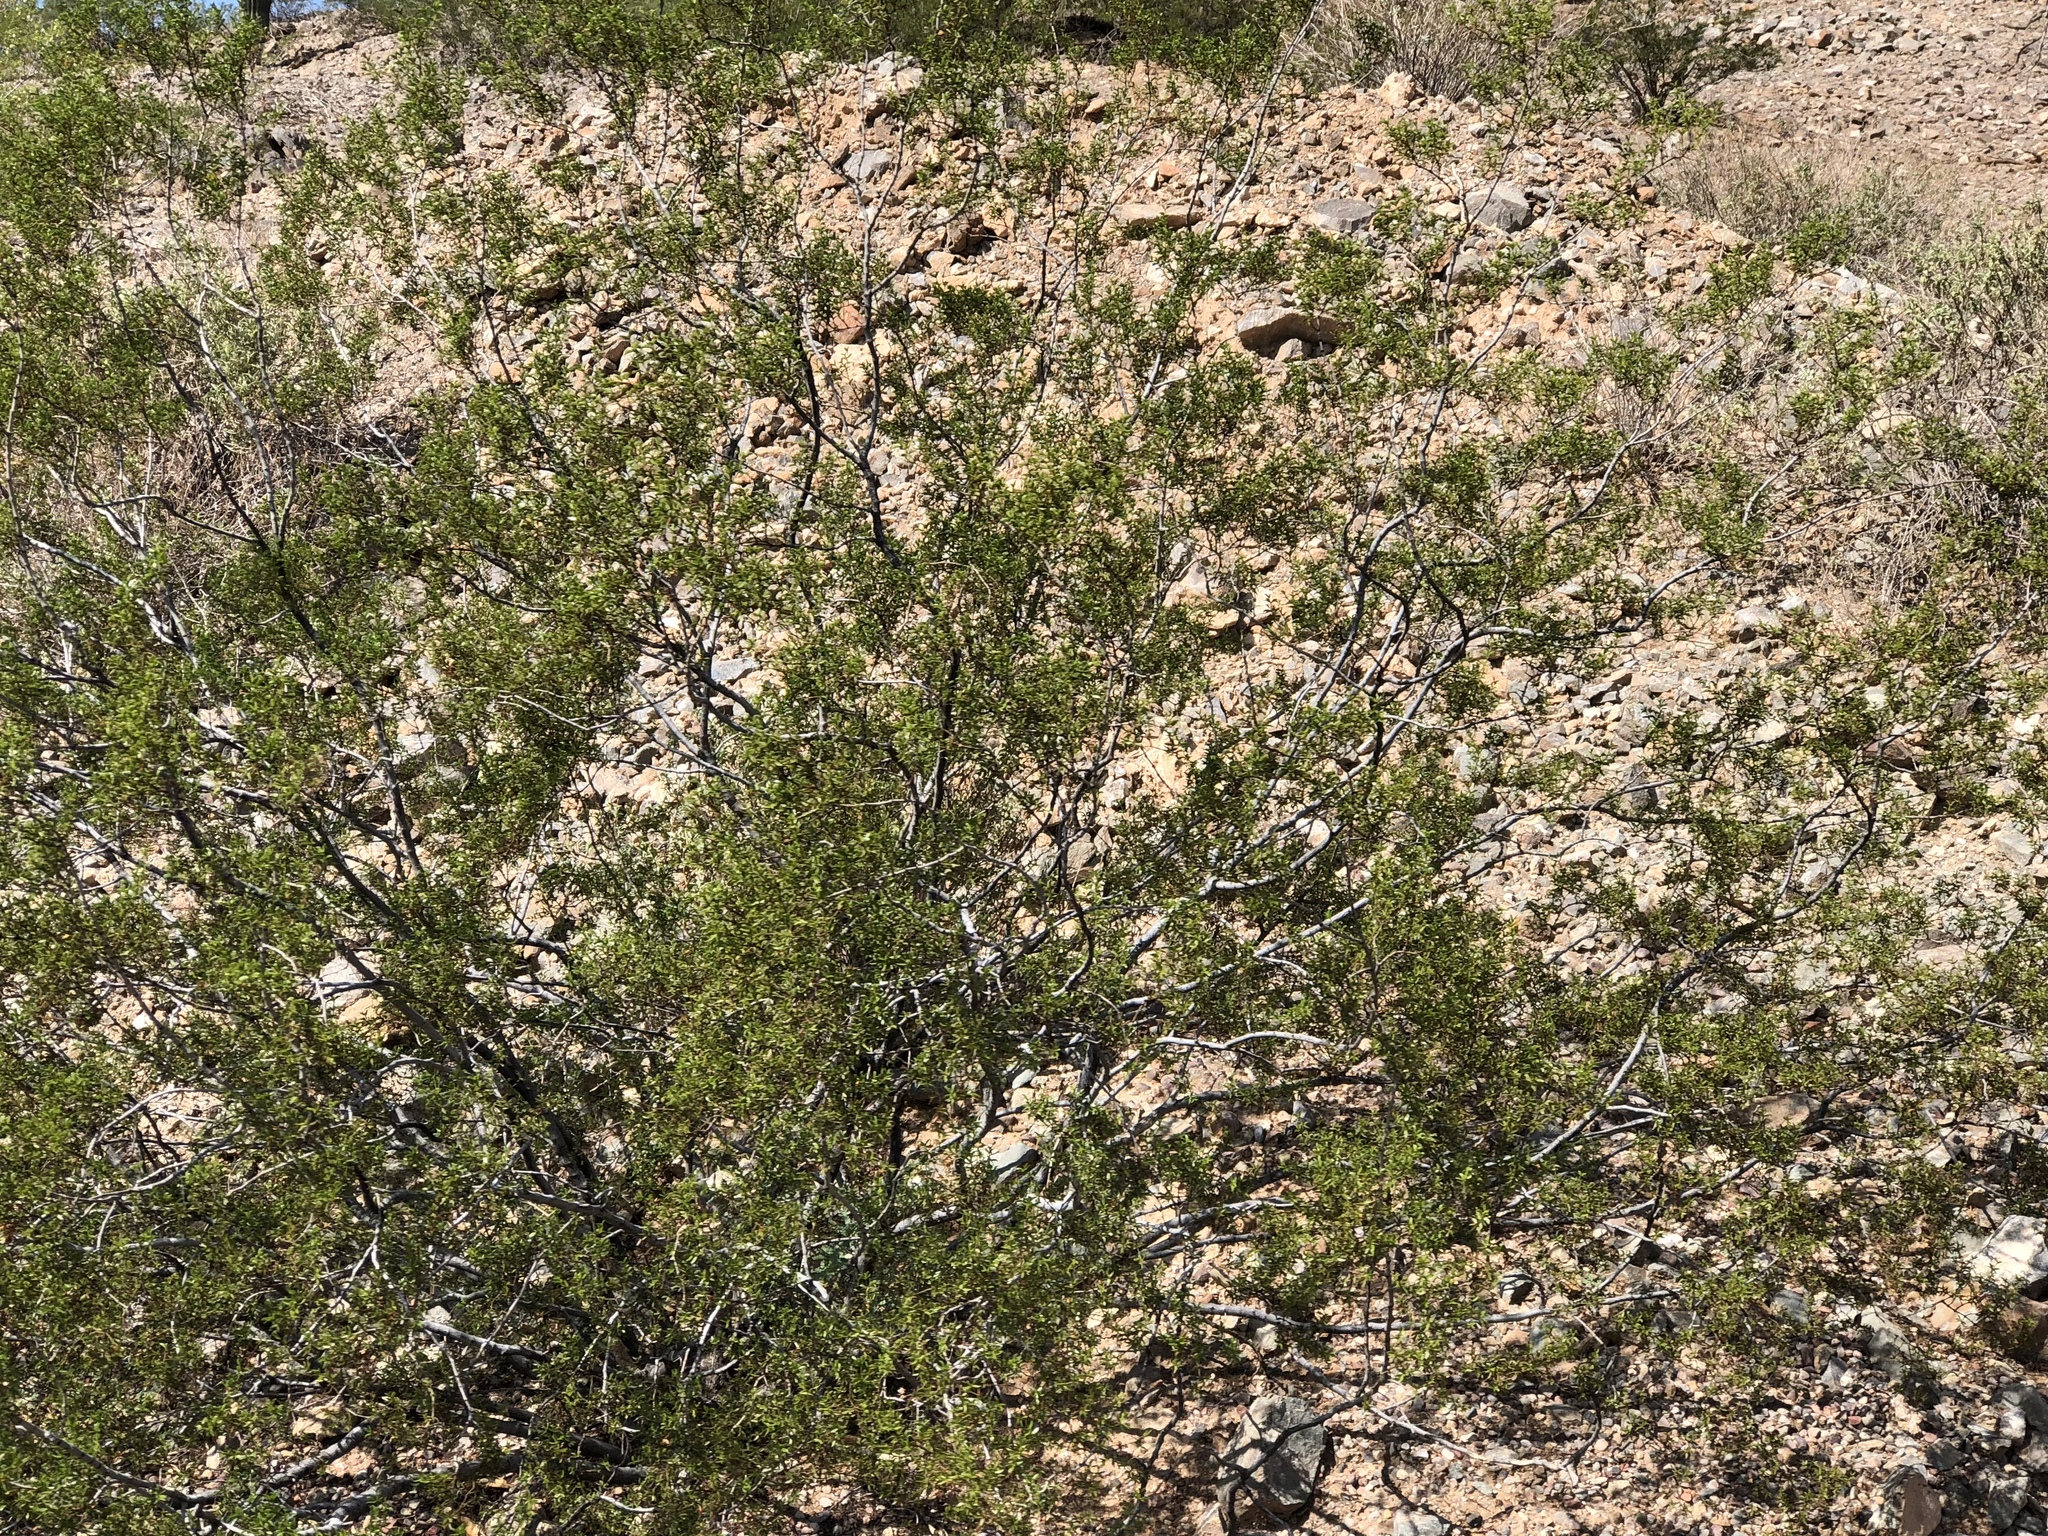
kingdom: Plantae
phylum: Tracheophyta
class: Magnoliopsida
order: Zygophyllales
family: Zygophyllaceae
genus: Larrea
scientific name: Larrea tridentata
